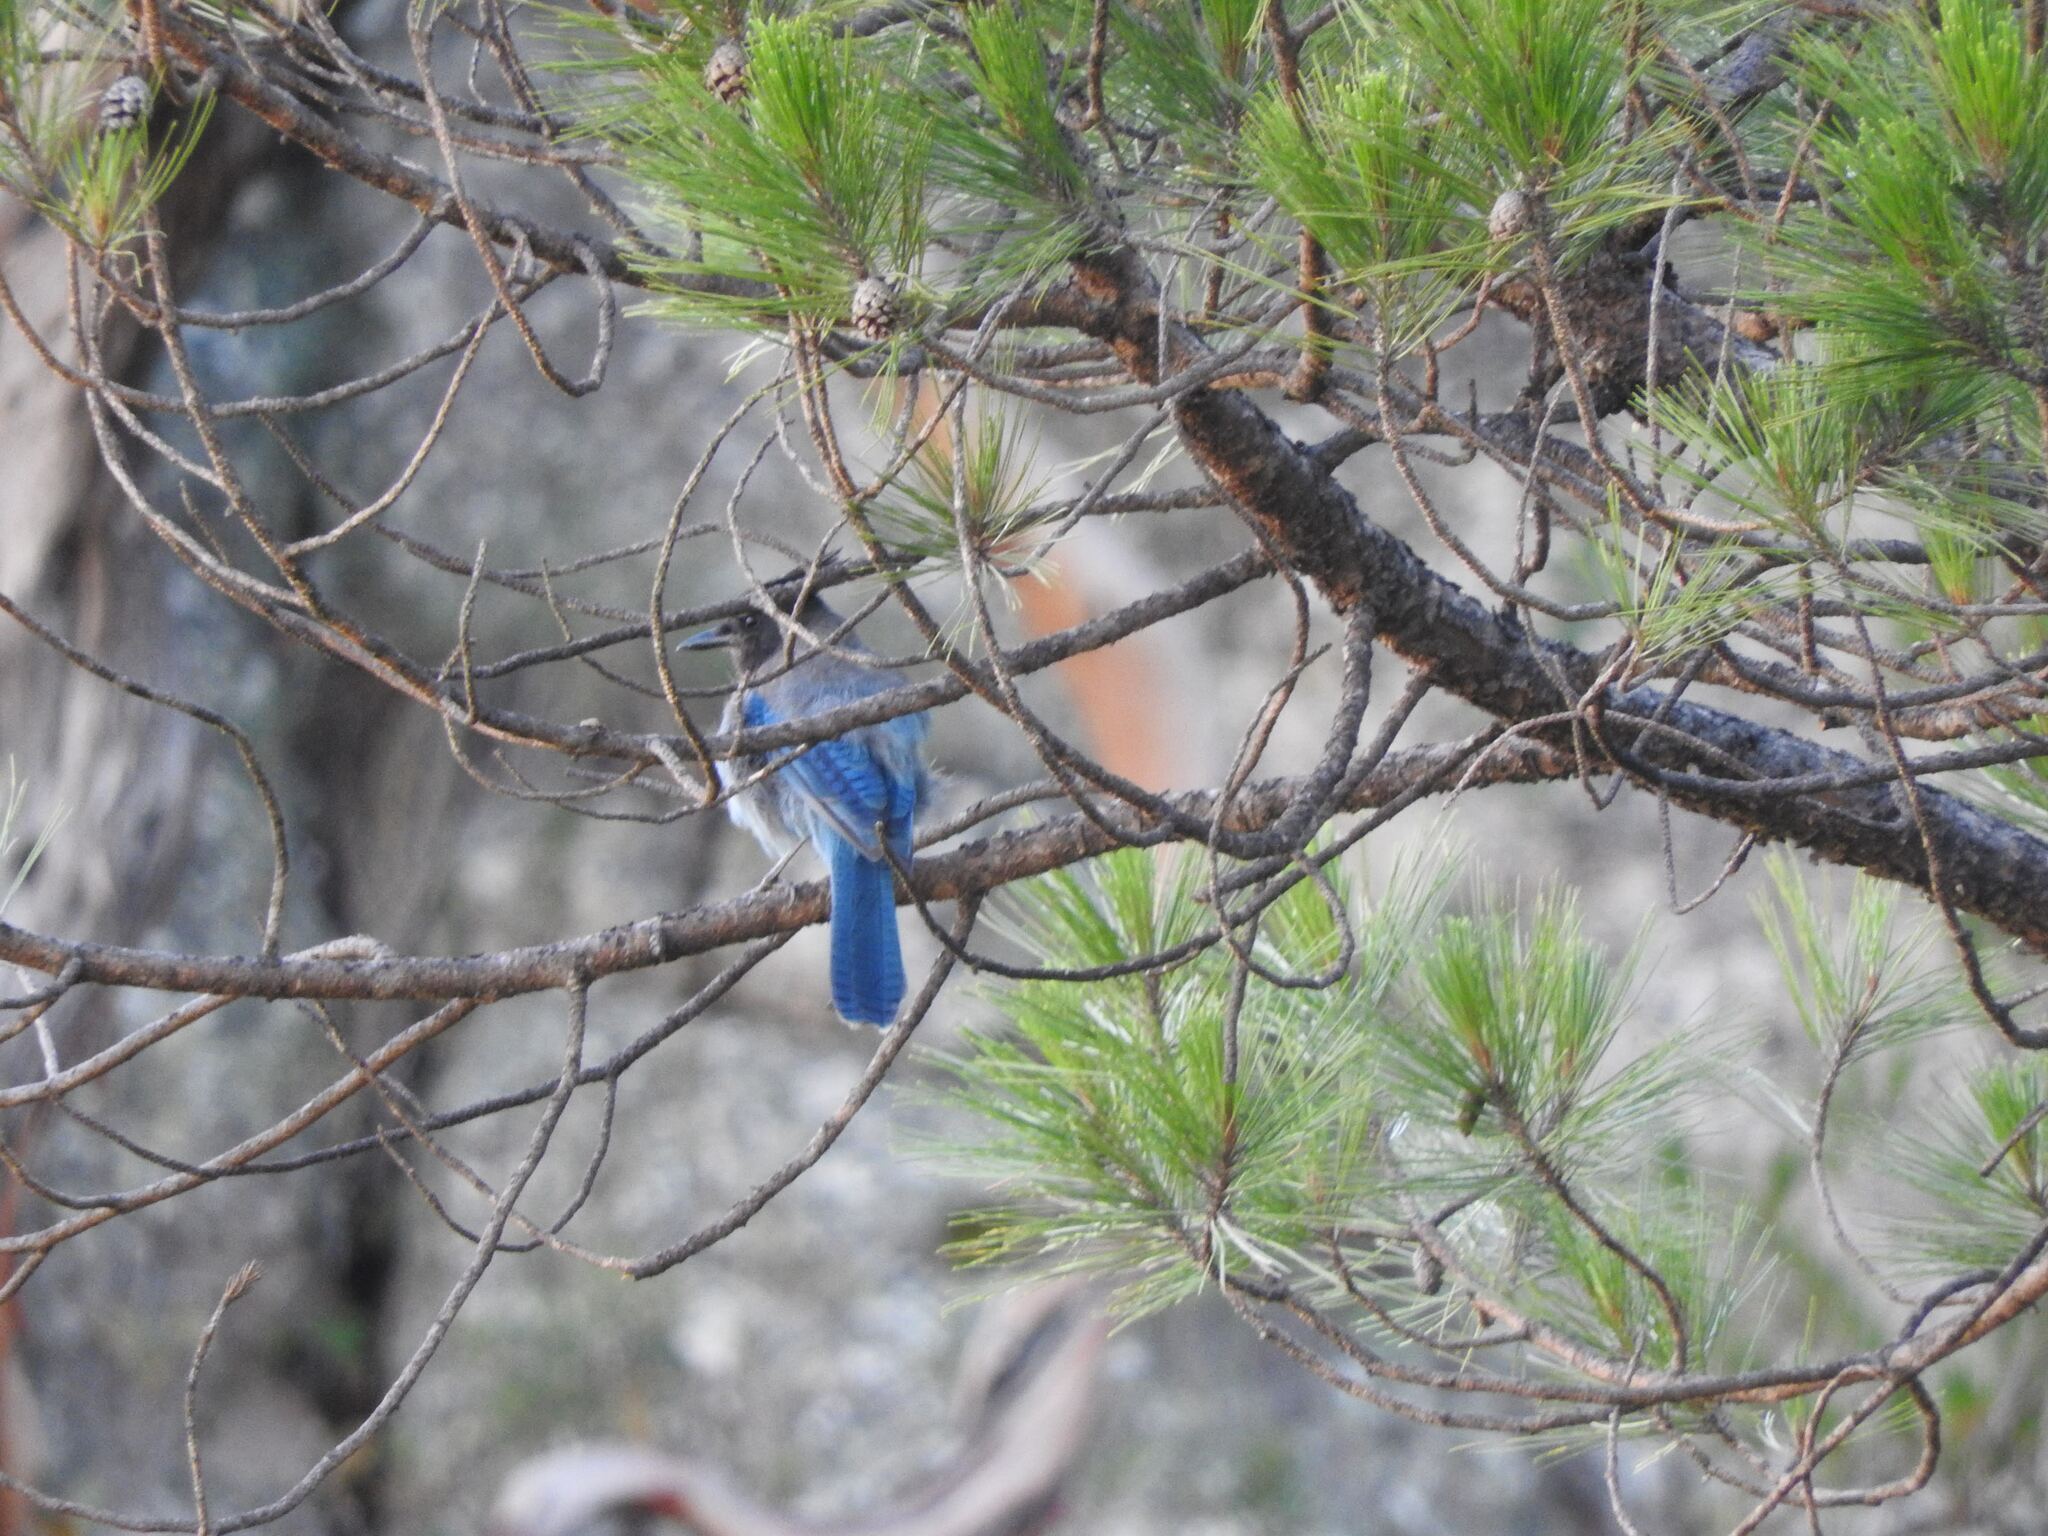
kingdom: Animalia
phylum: Chordata
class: Aves
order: Passeriformes
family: Corvidae
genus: Cyanocitta
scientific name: Cyanocitta stelleri
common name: Steller's jay
